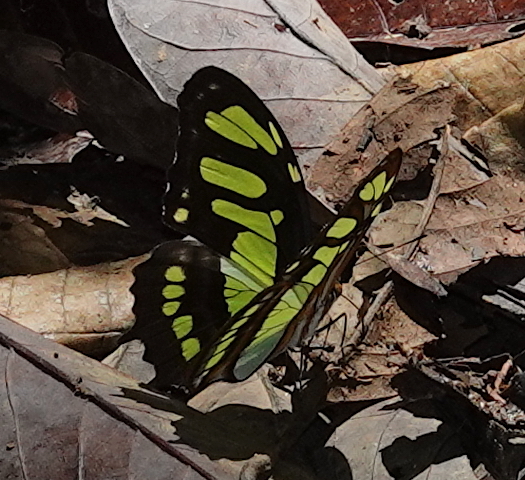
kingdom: Animalia
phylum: Arthropoda
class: Insecta
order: Lepidoptera
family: Nymphalidae
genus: Siproeta
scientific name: Siproeta stelenes
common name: Malachite
